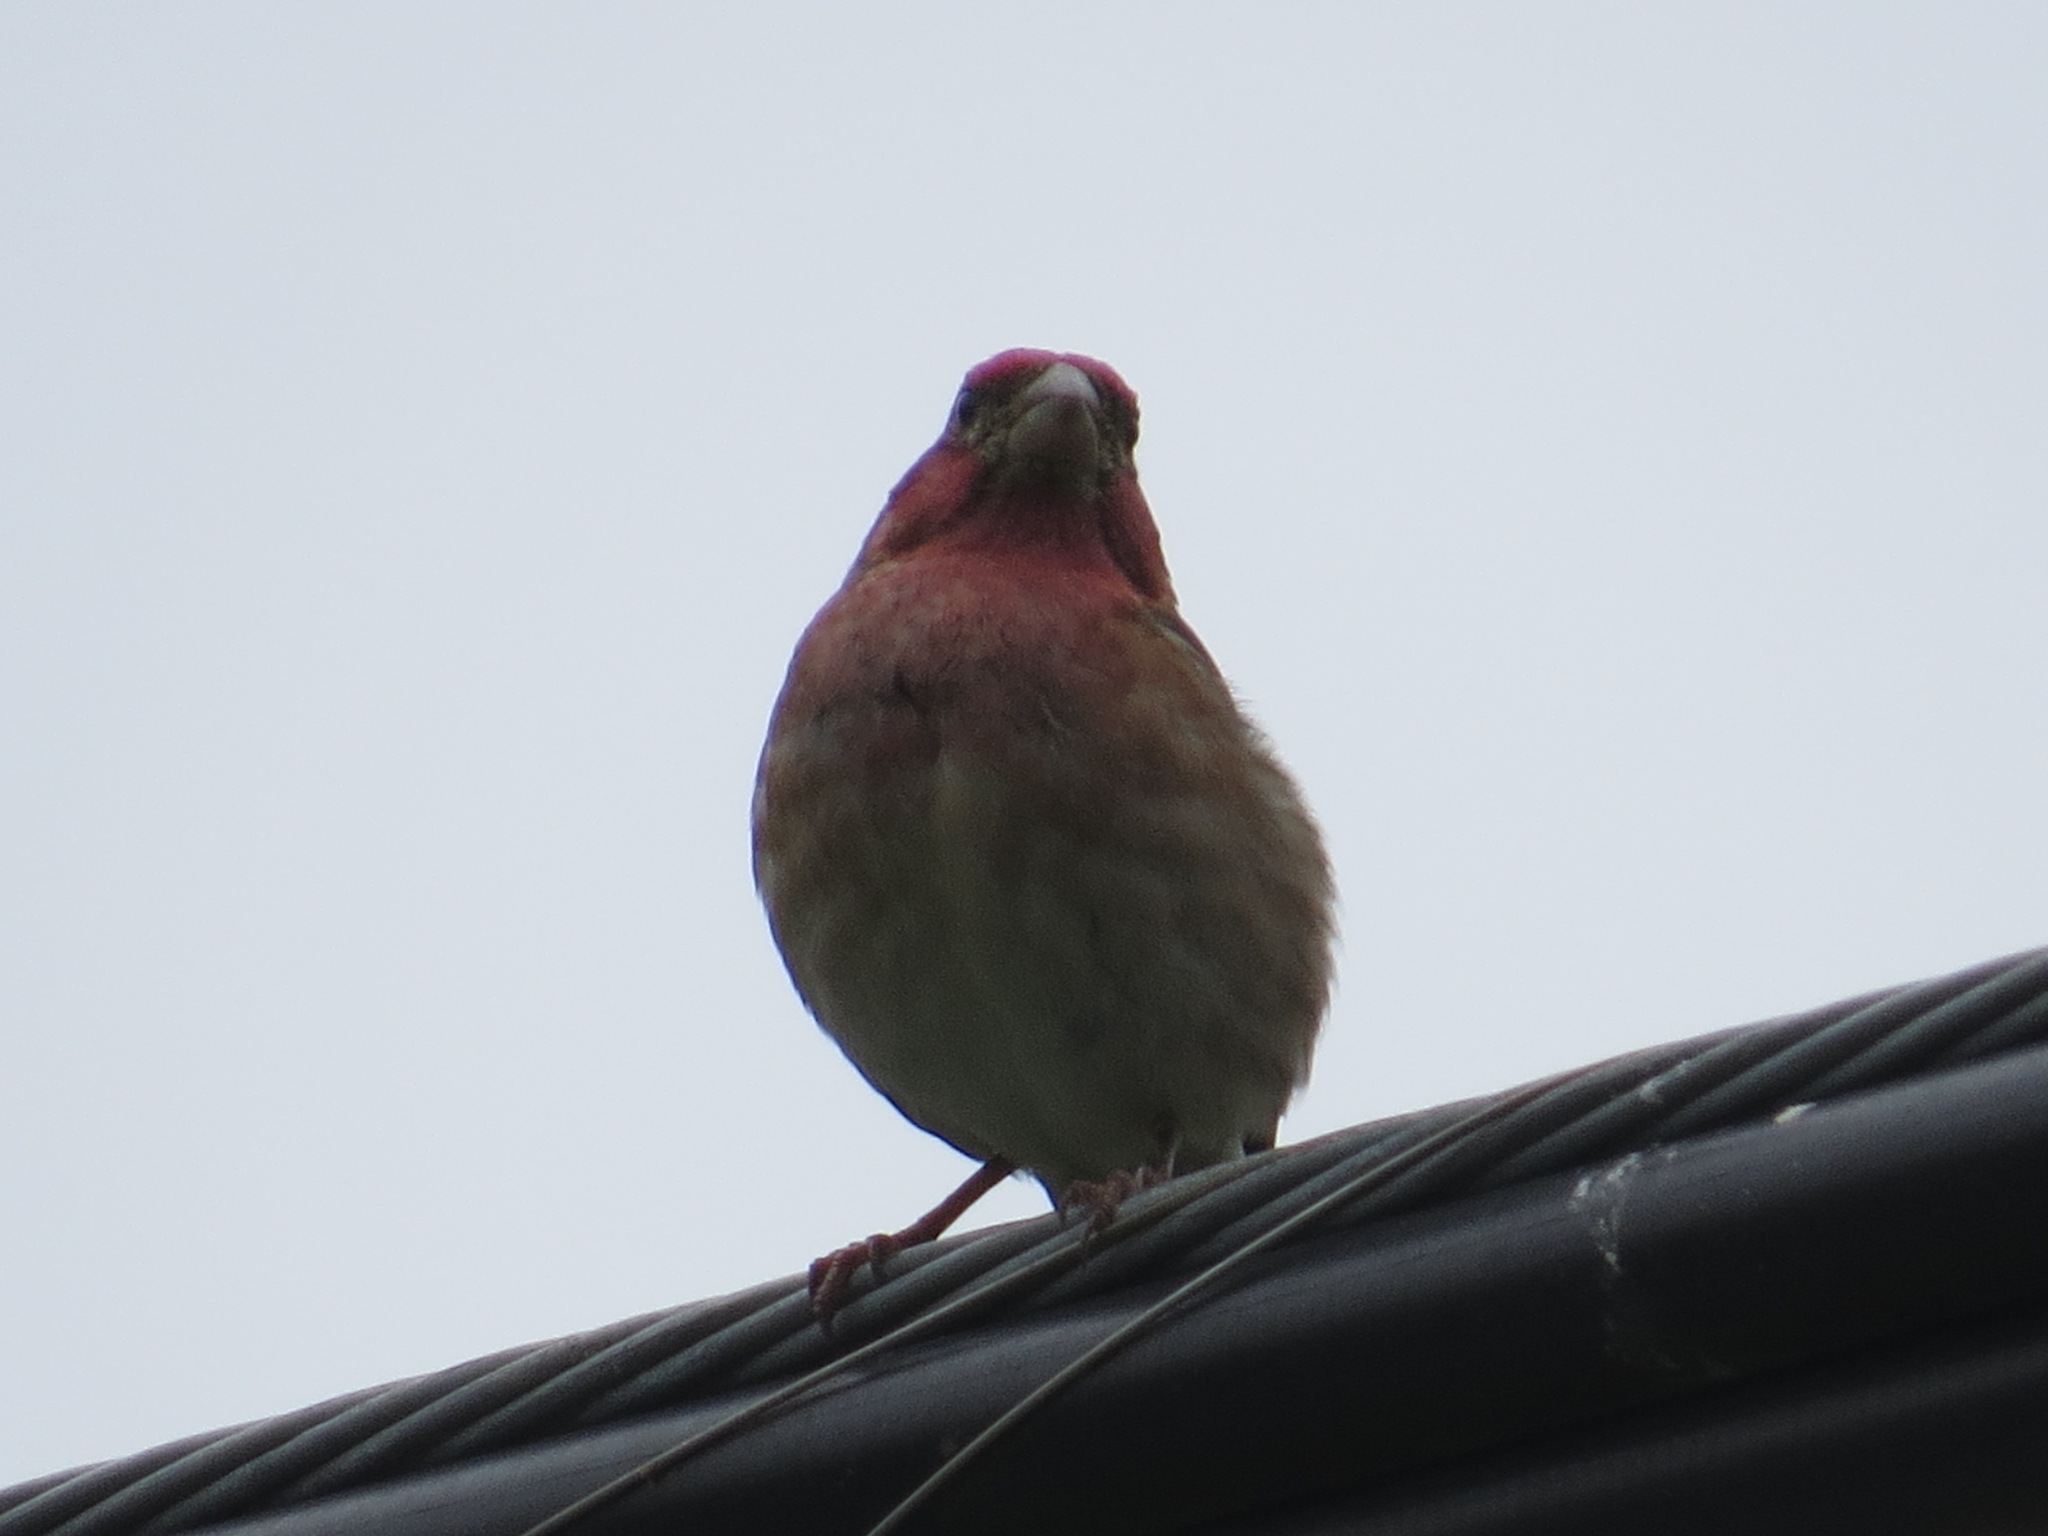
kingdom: Animalia
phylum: Chordata
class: Aves
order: Passeriformes
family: Fringillidae
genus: Haemorhous
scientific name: Haemorhous purpureus
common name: Purple finch
